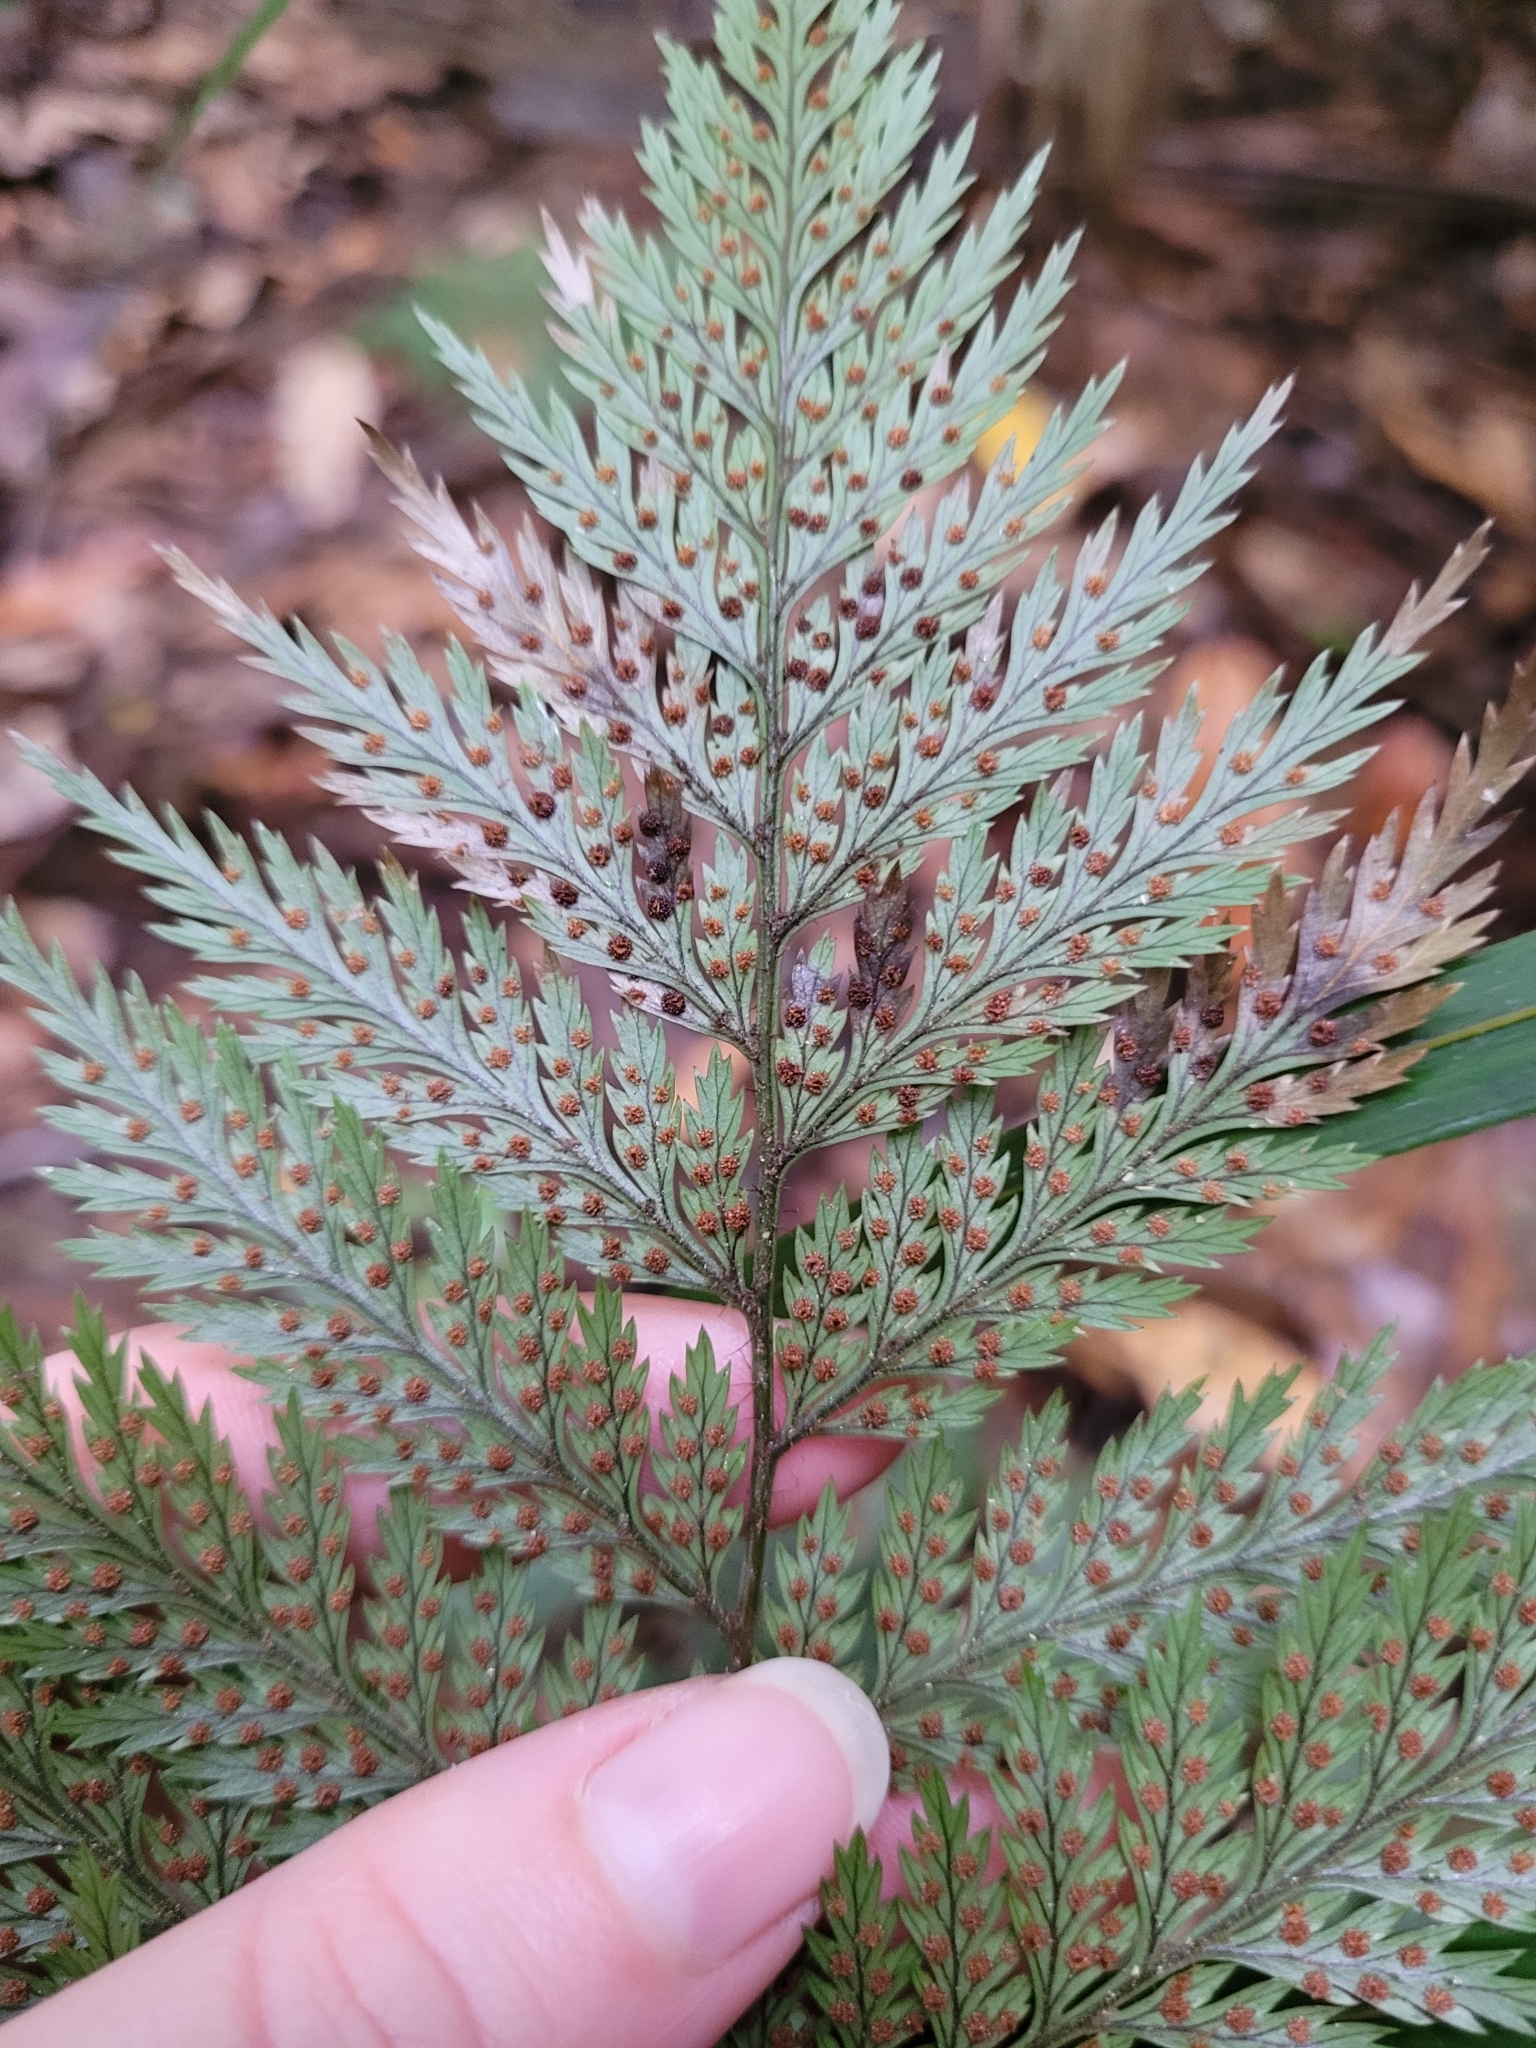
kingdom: Plantae
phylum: Tracheophyta
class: Polypodiopsida
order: Polypodiales
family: Dryopteridaceae
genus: Lastreopsis
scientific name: Lastreopsis hispida
